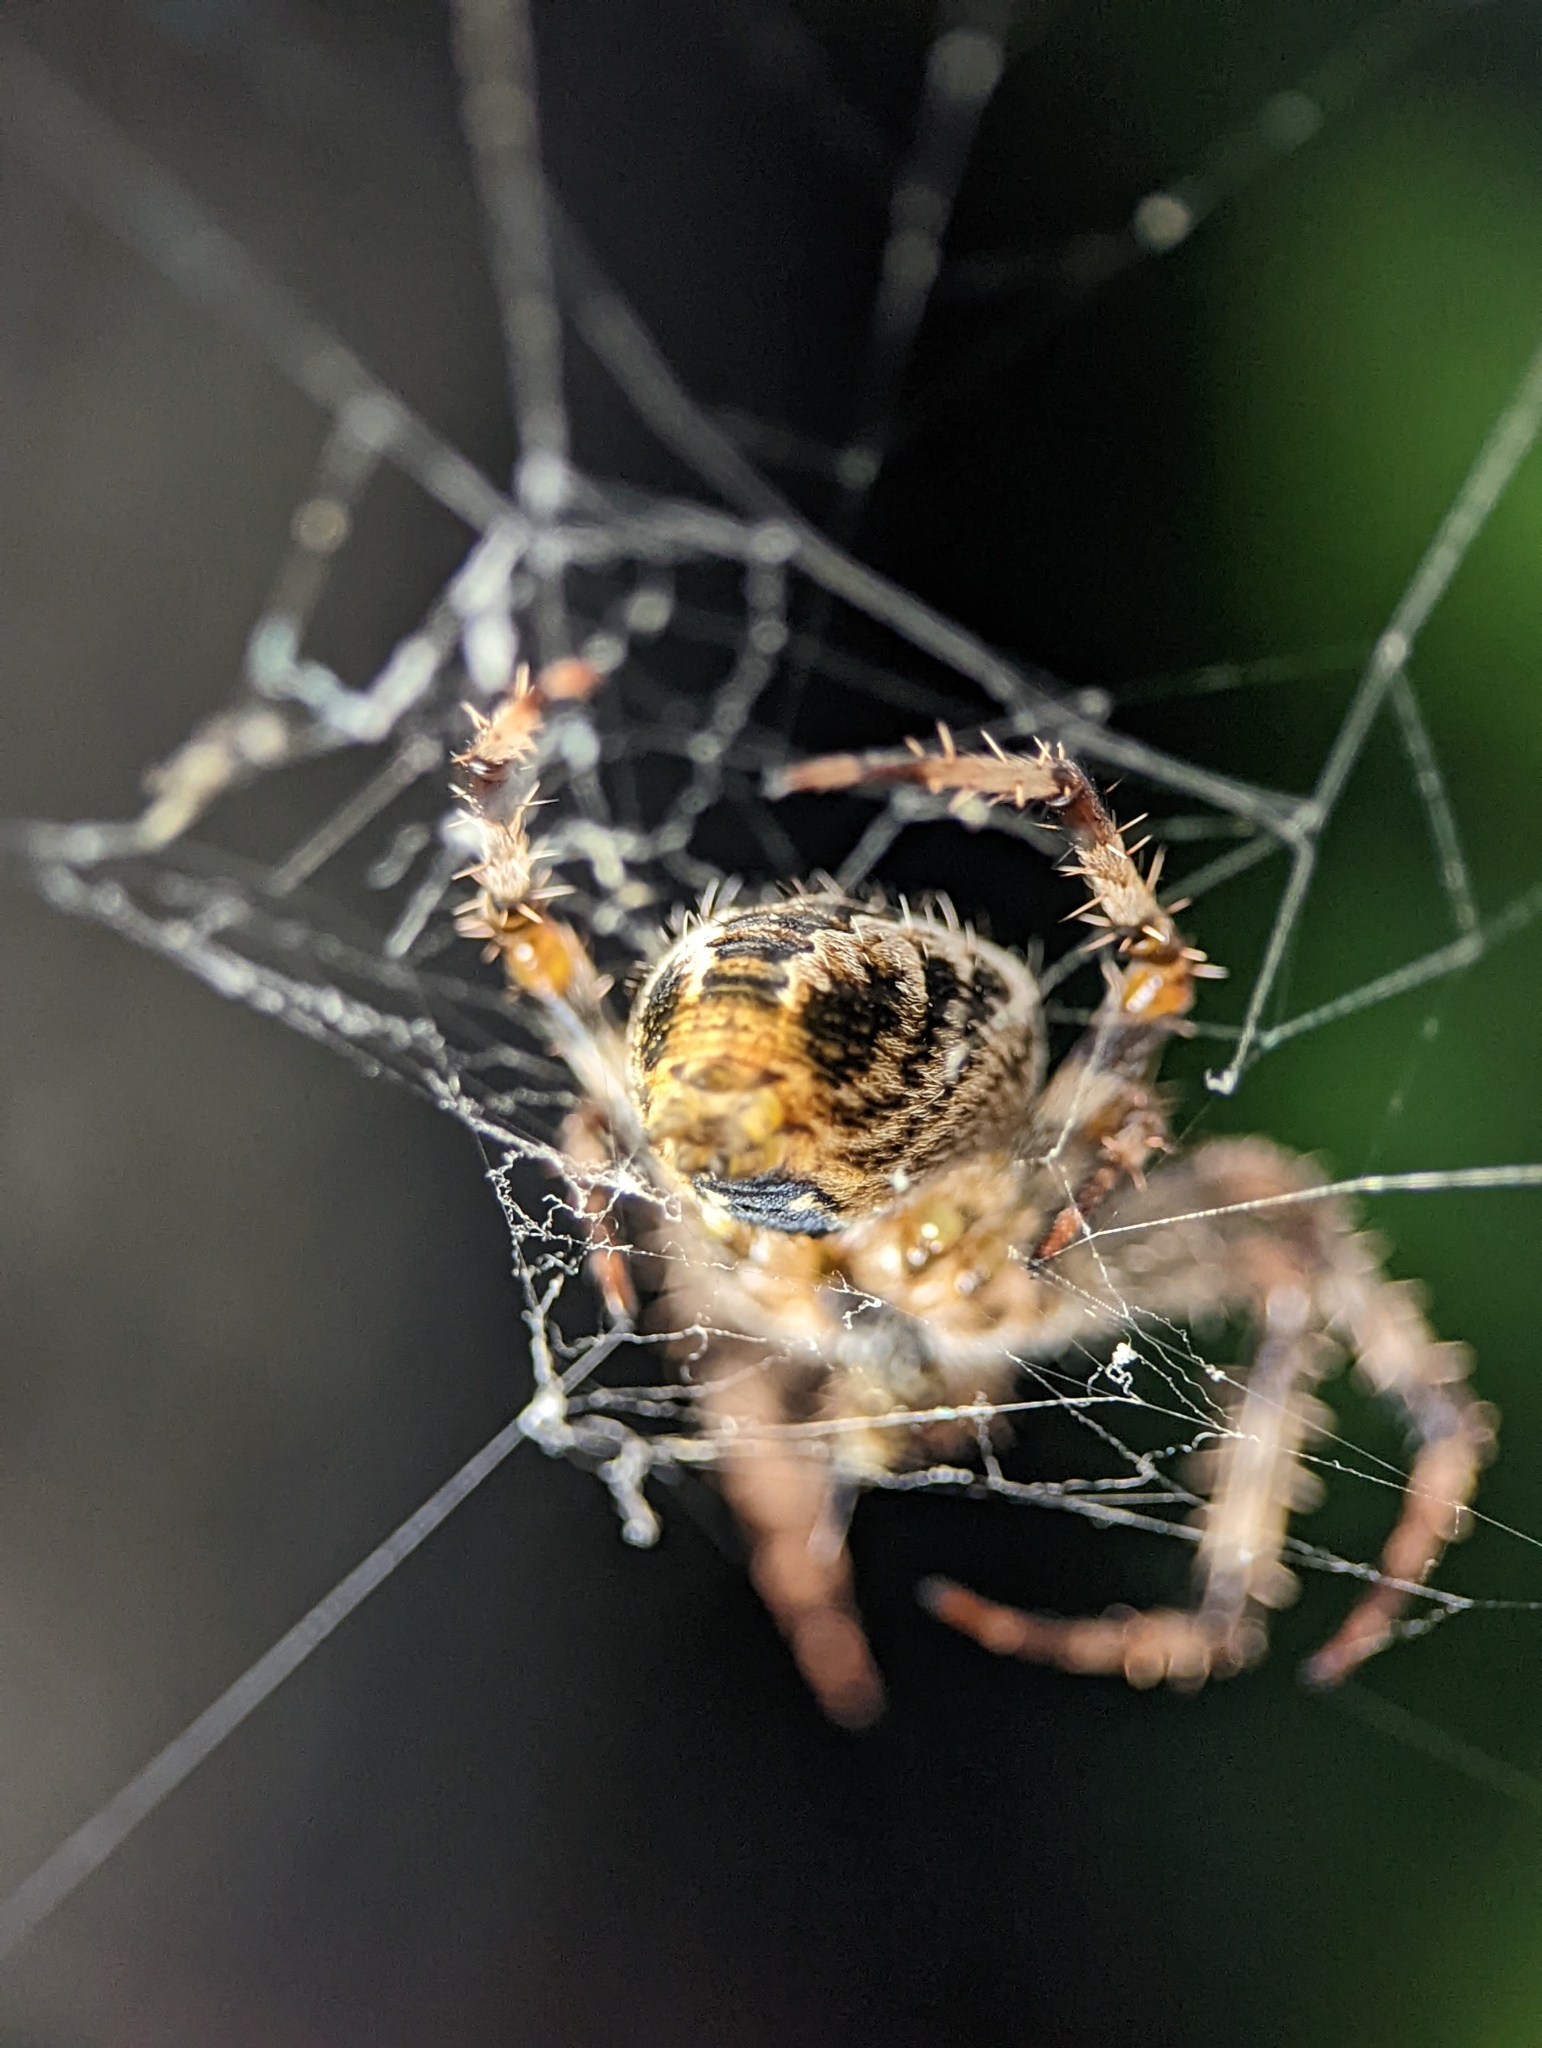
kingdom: Animalia
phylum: Arthropoda
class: Arachnida
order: Araneae
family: Araneidae
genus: Araneus
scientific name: Araneus diadematus
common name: Cross orbweaver
